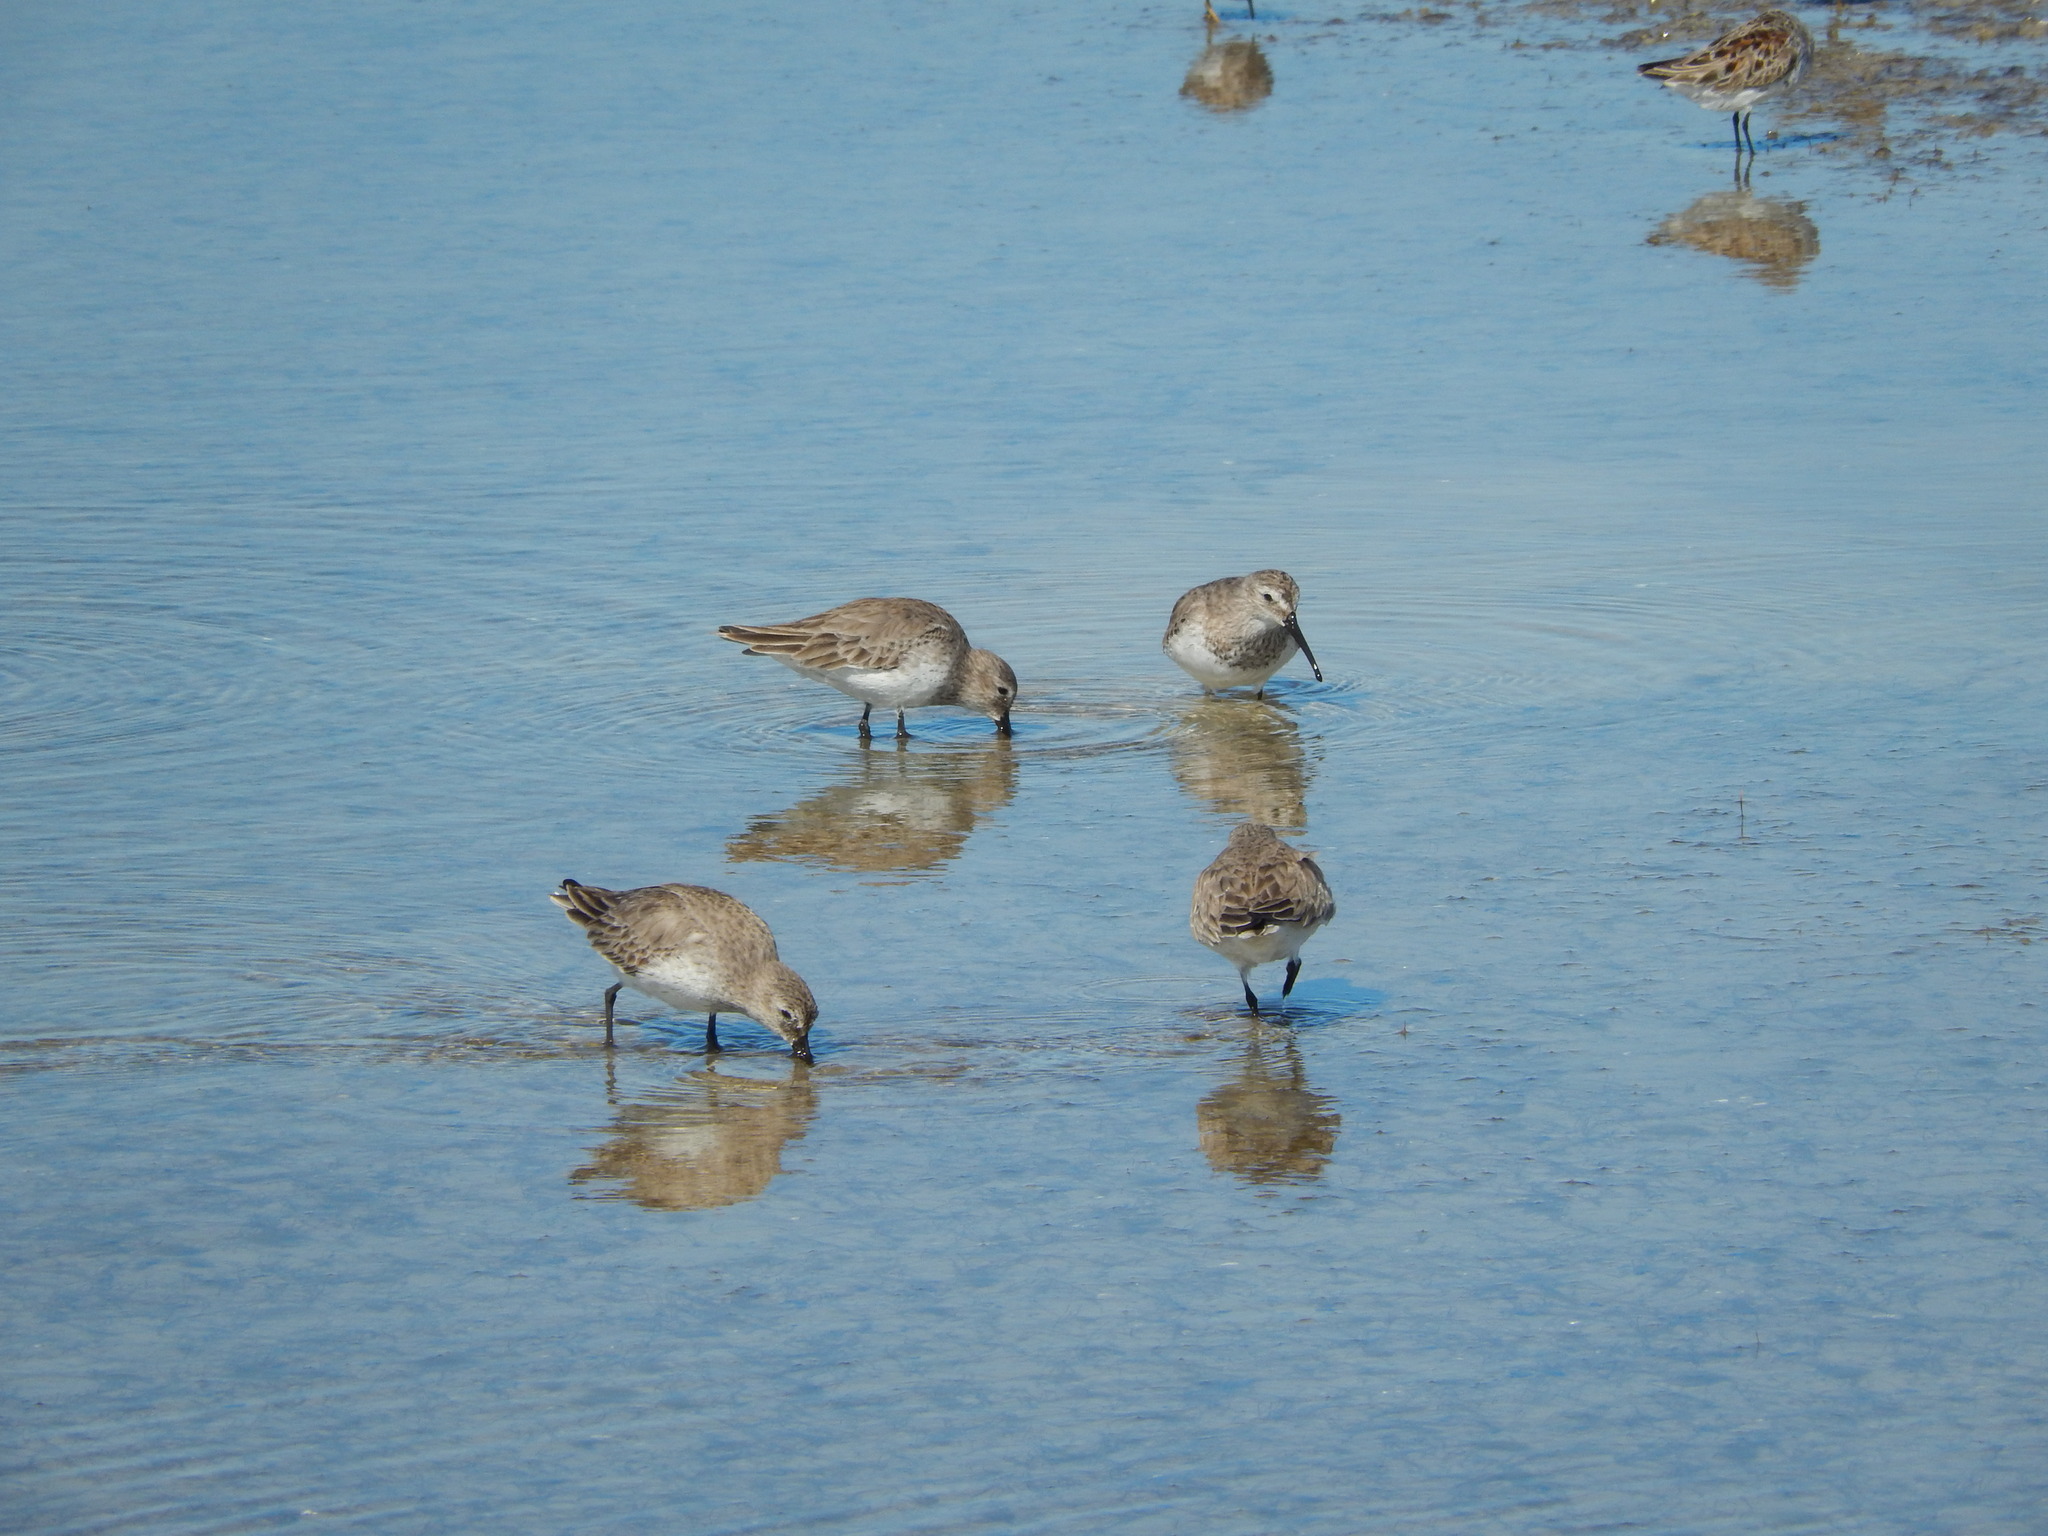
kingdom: Animalia
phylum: Chordata
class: Aves
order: Charadriiformes
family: Scolopacidae
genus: Calidris
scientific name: Calidris alpina
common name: Dunlin
